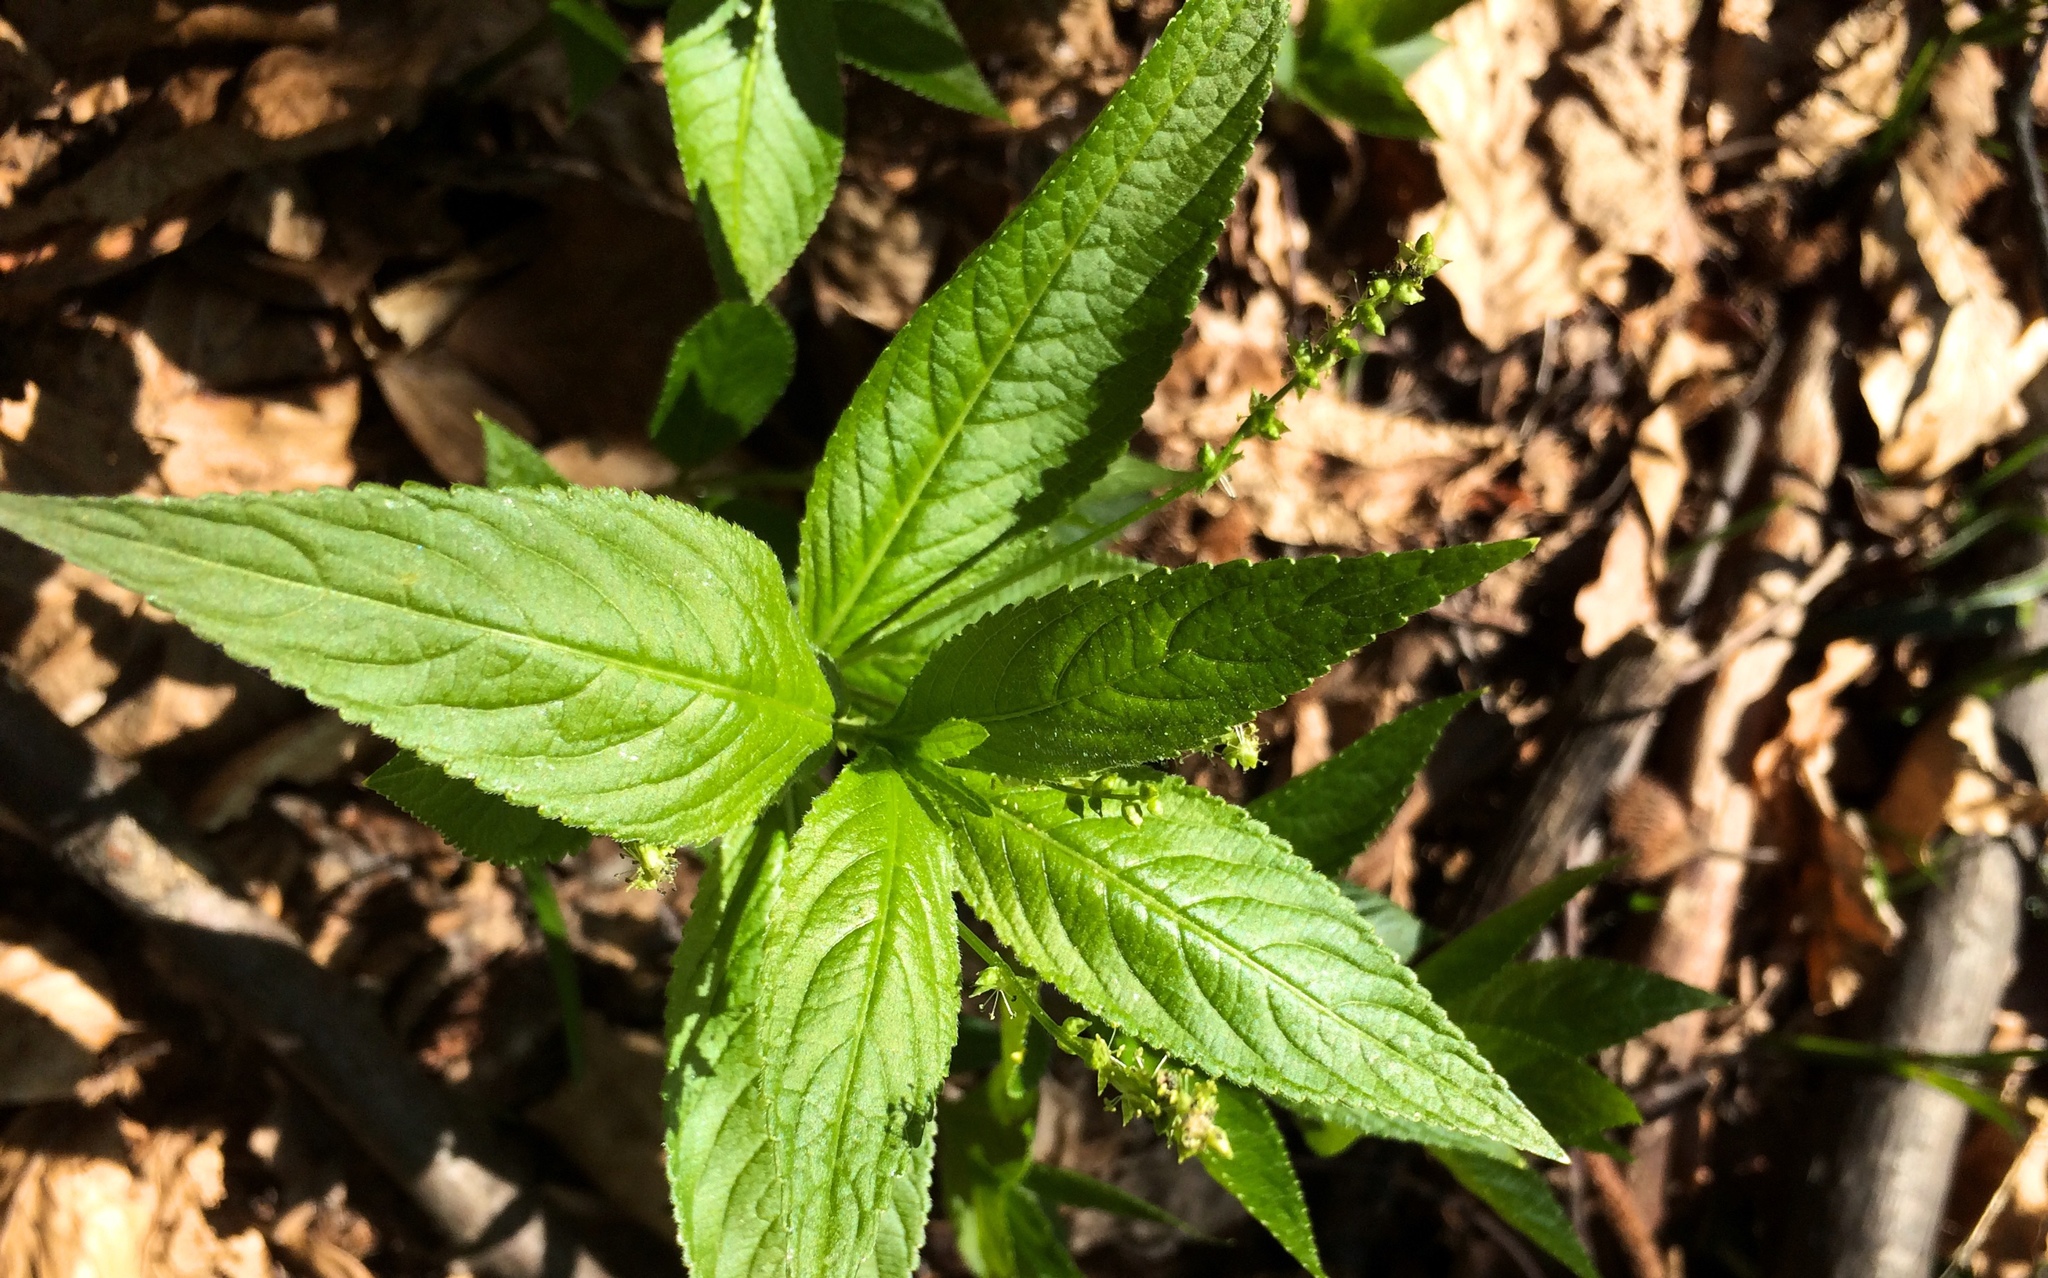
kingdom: Plantae
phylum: Tracheophyta
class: Magnoliopsida
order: Malpighiales
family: Euphorbiaceae
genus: Mercurialis
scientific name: Mercurialis perennis
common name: Dog mercury
